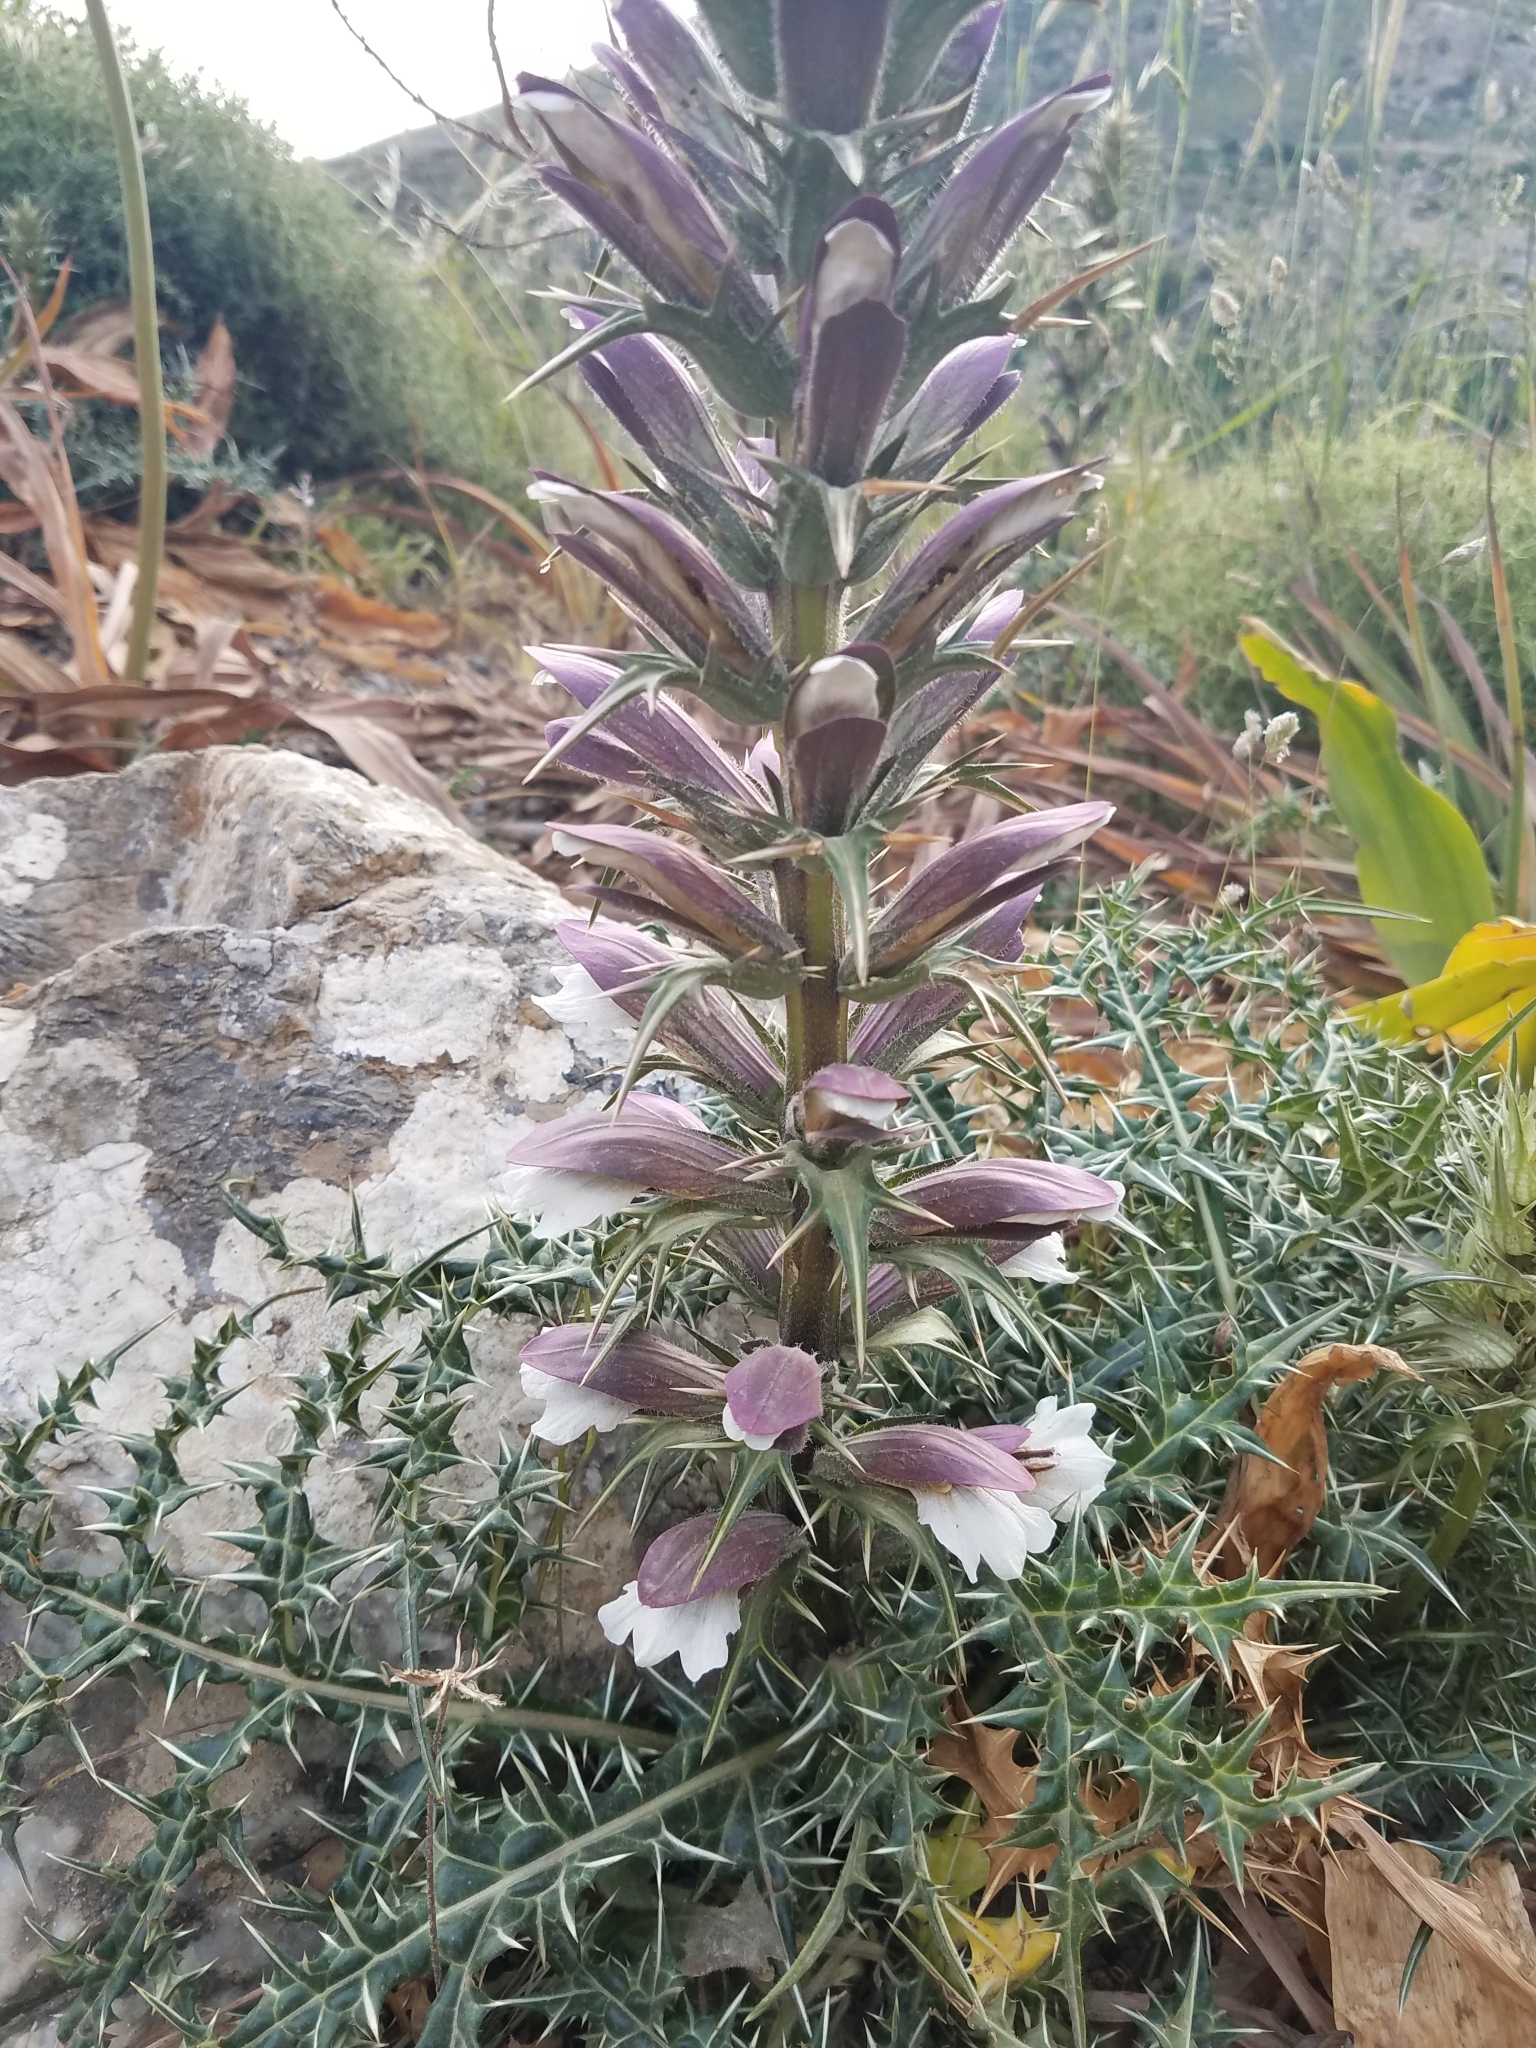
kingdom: Plantae
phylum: Tracheophyta
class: Magnoliopsida
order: Lamiales
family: Acanthaceae
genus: Acanthus
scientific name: Acanthus spinosus
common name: Spiny bear's-breech
